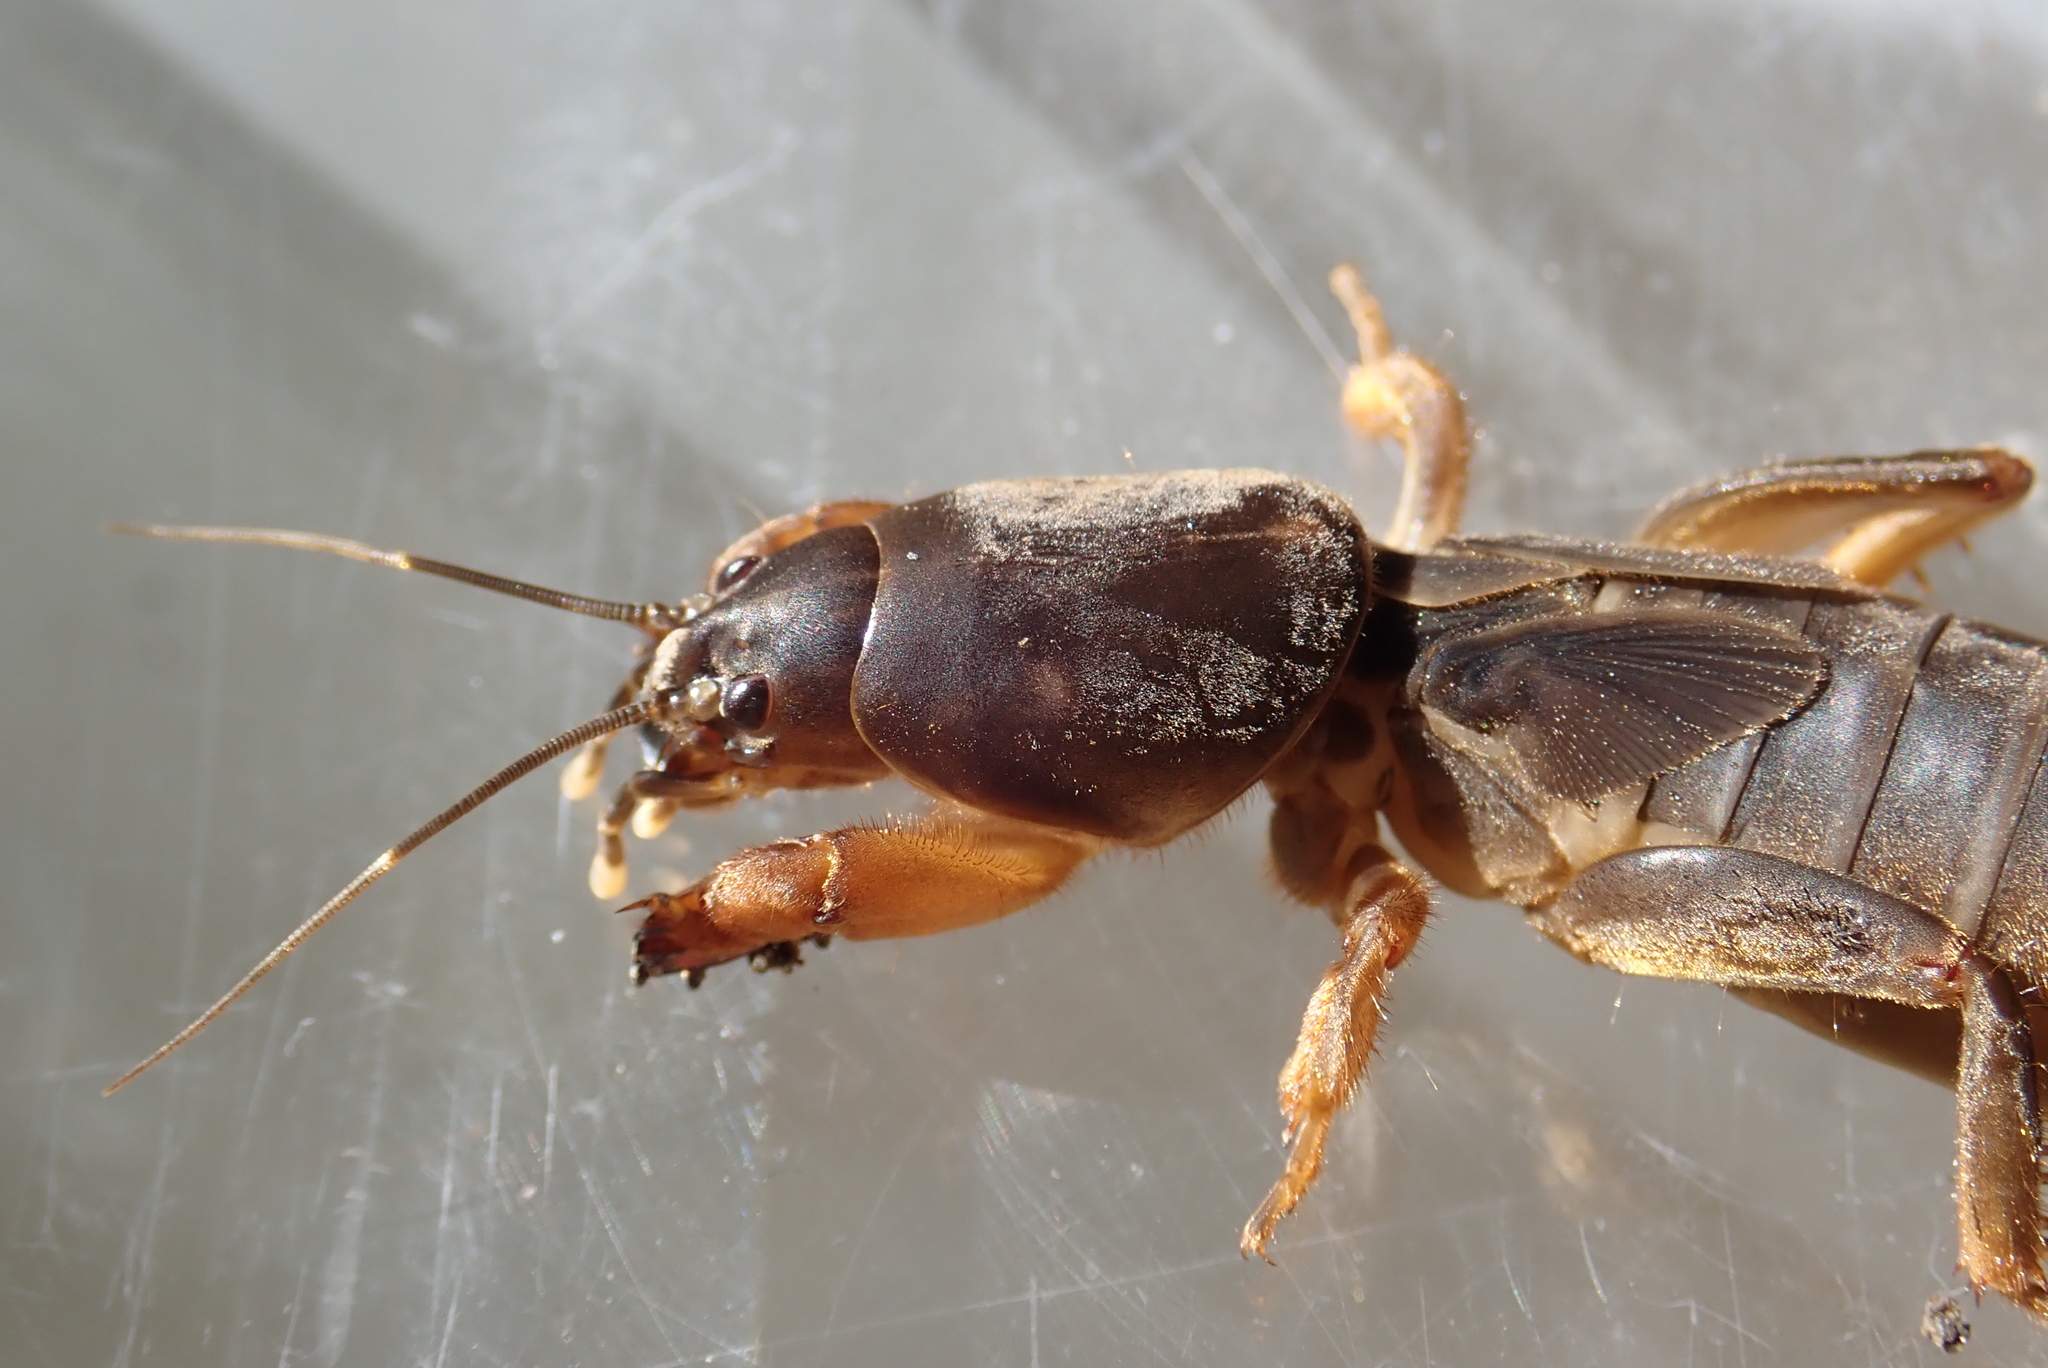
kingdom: Animalia
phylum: Arthropoda
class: Insecta
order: Orthoptera
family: Gryllotalpidae
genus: Gryllotalpa
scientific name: Gryllotalpa gryllotalpa
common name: European mole cricket
